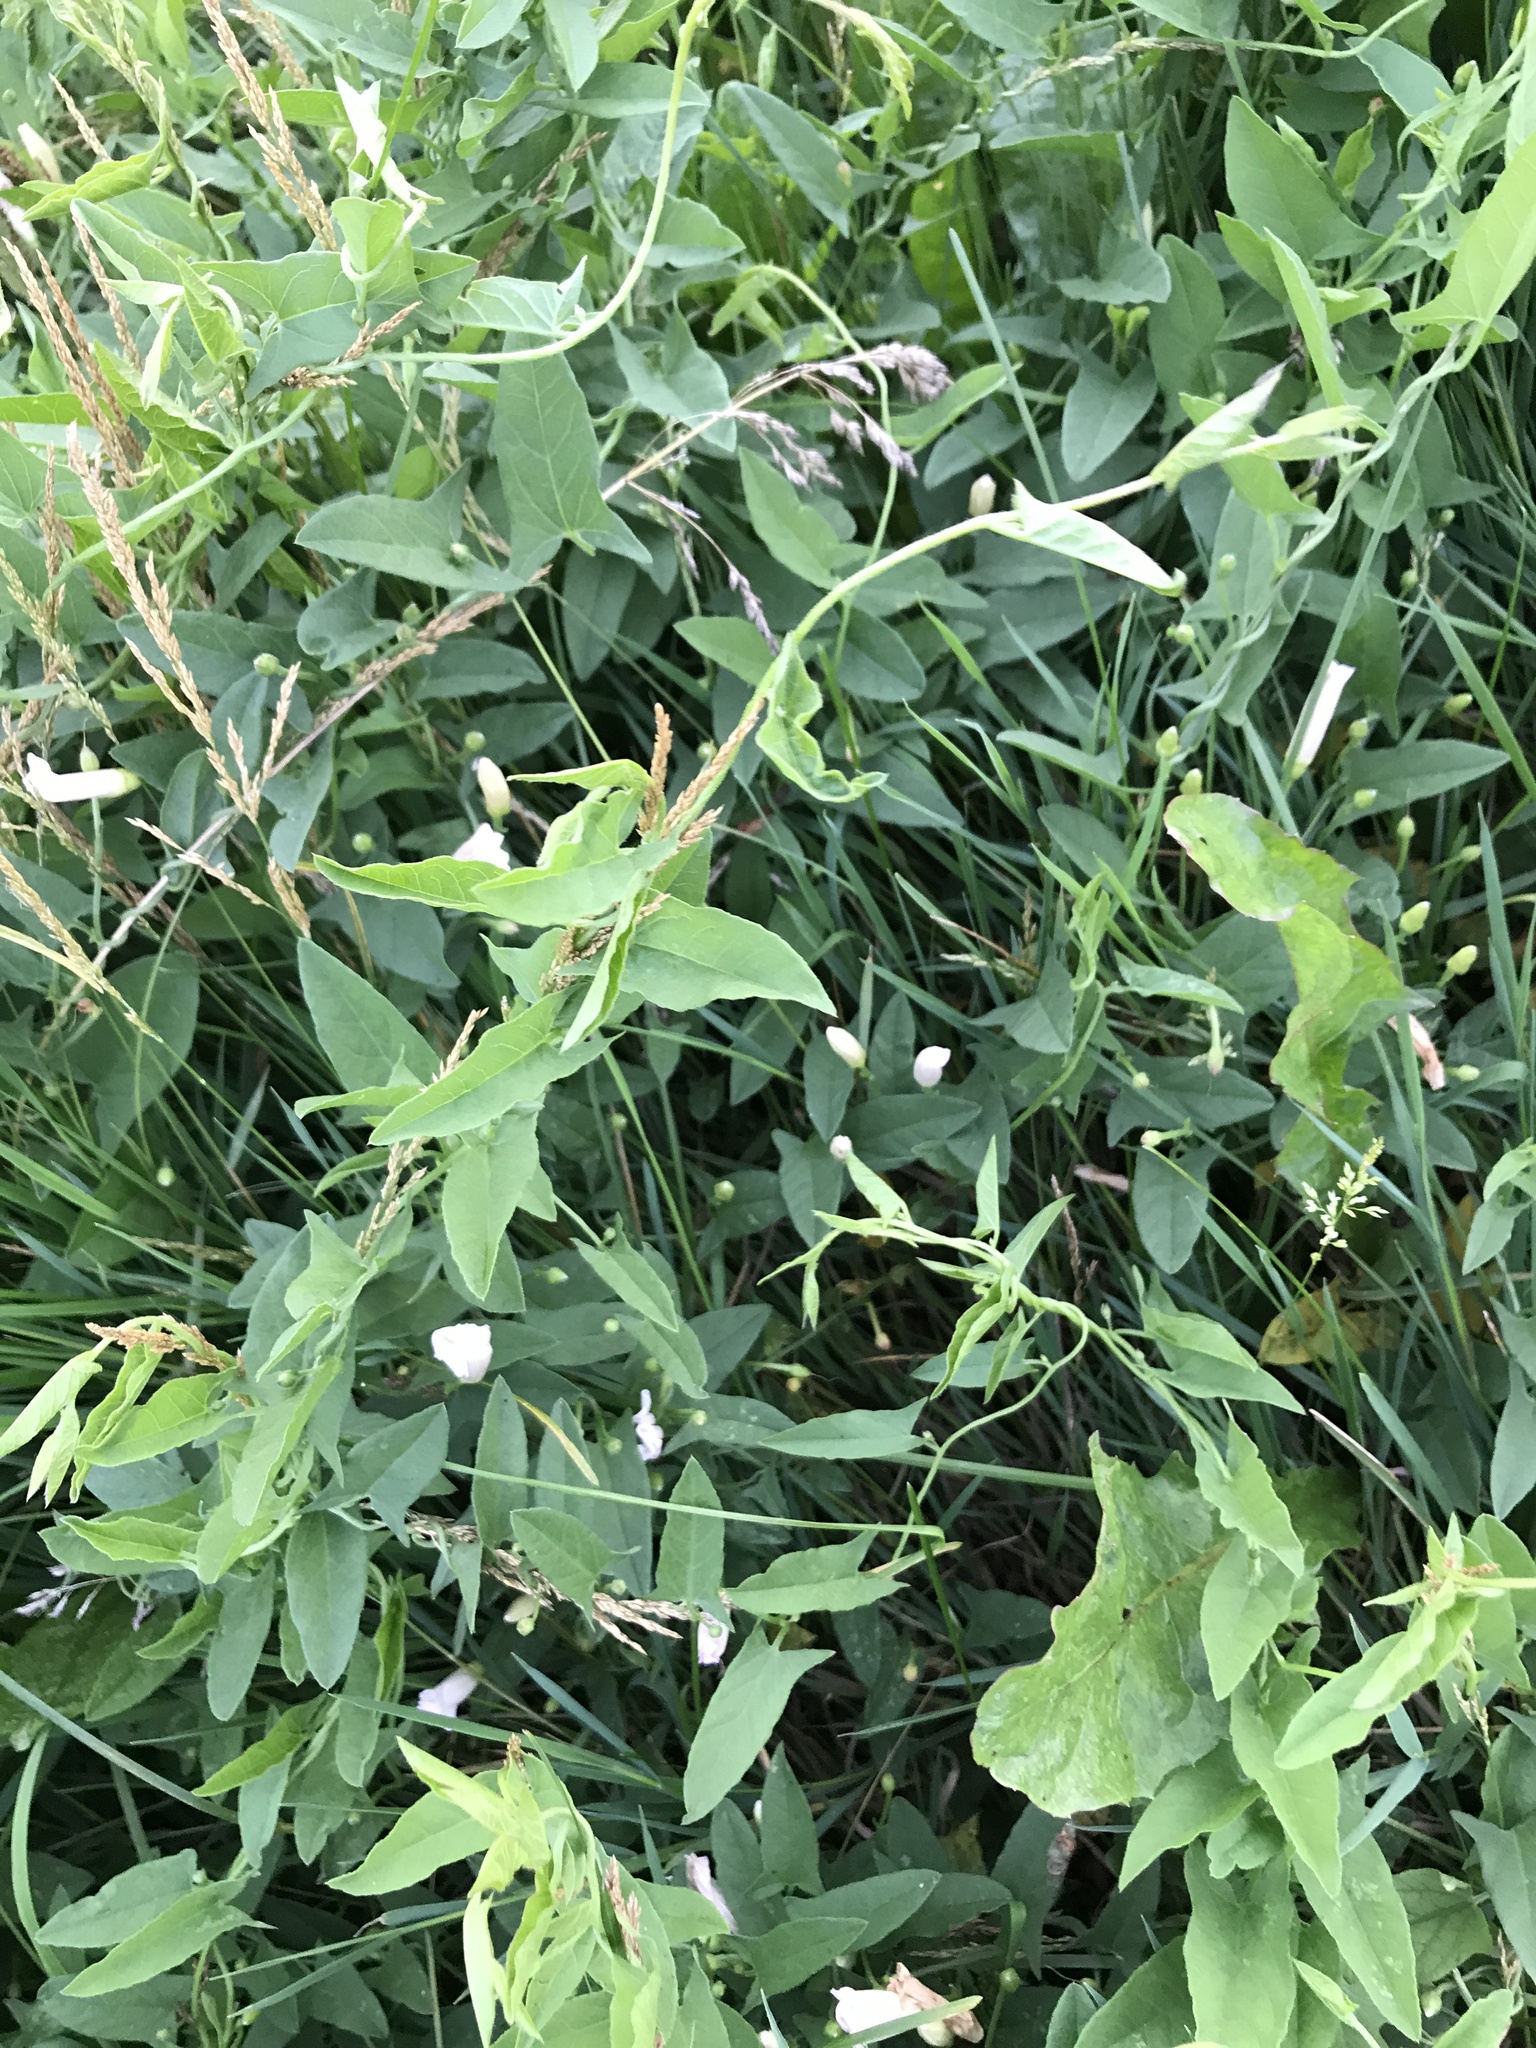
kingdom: Plantae
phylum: Tracheophyta
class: Magnoliopsida
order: Solanales
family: Convolvulaceae
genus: Convolvulus
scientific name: Convolvulus arvensis
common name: Field bindweed
